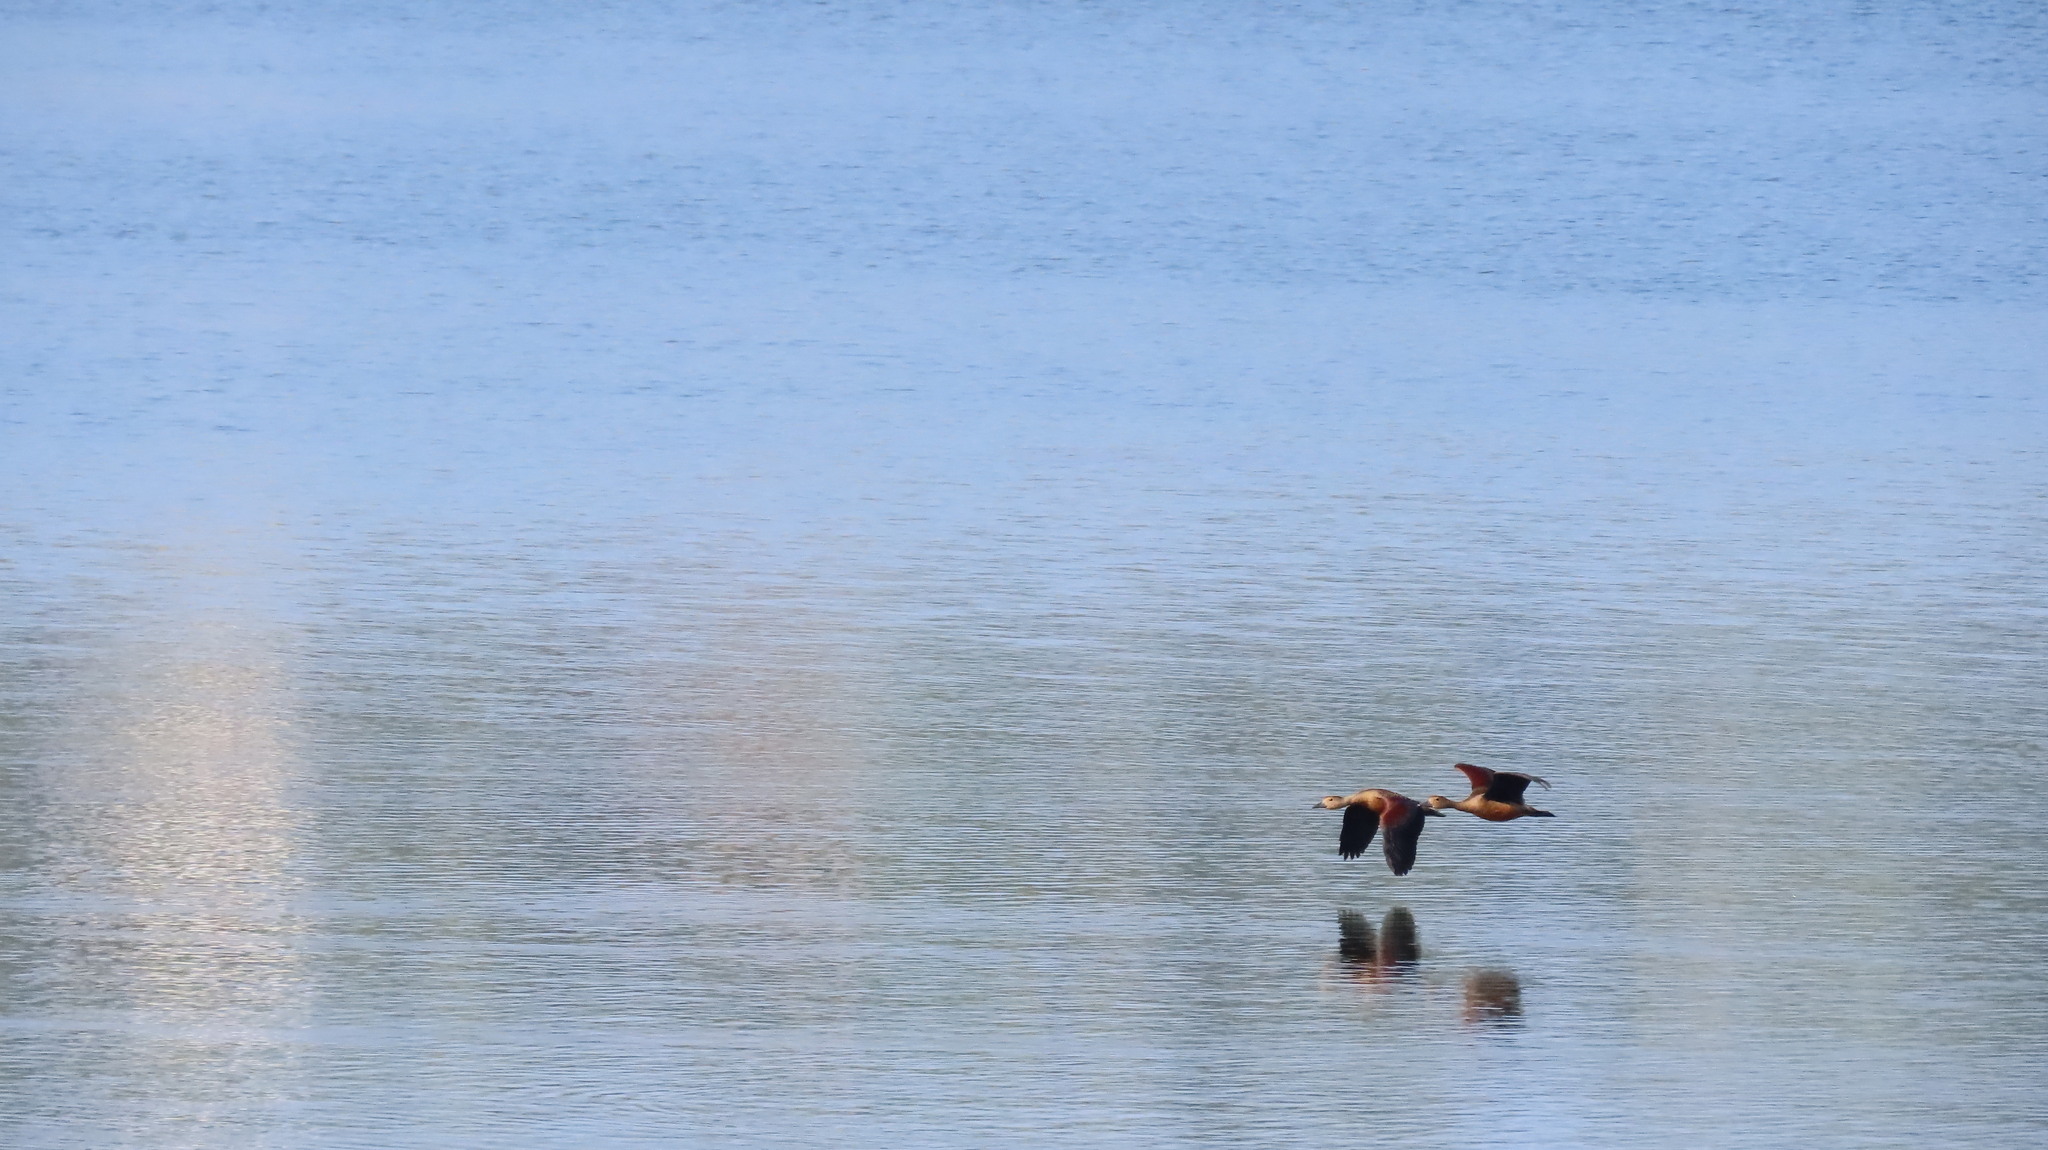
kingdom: Animalia
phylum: Chordata
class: Aves
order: Anseriformes
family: Anatidae
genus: Dendrocygna
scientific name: Dendrocygna javanica
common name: Lesser whistling-duck
